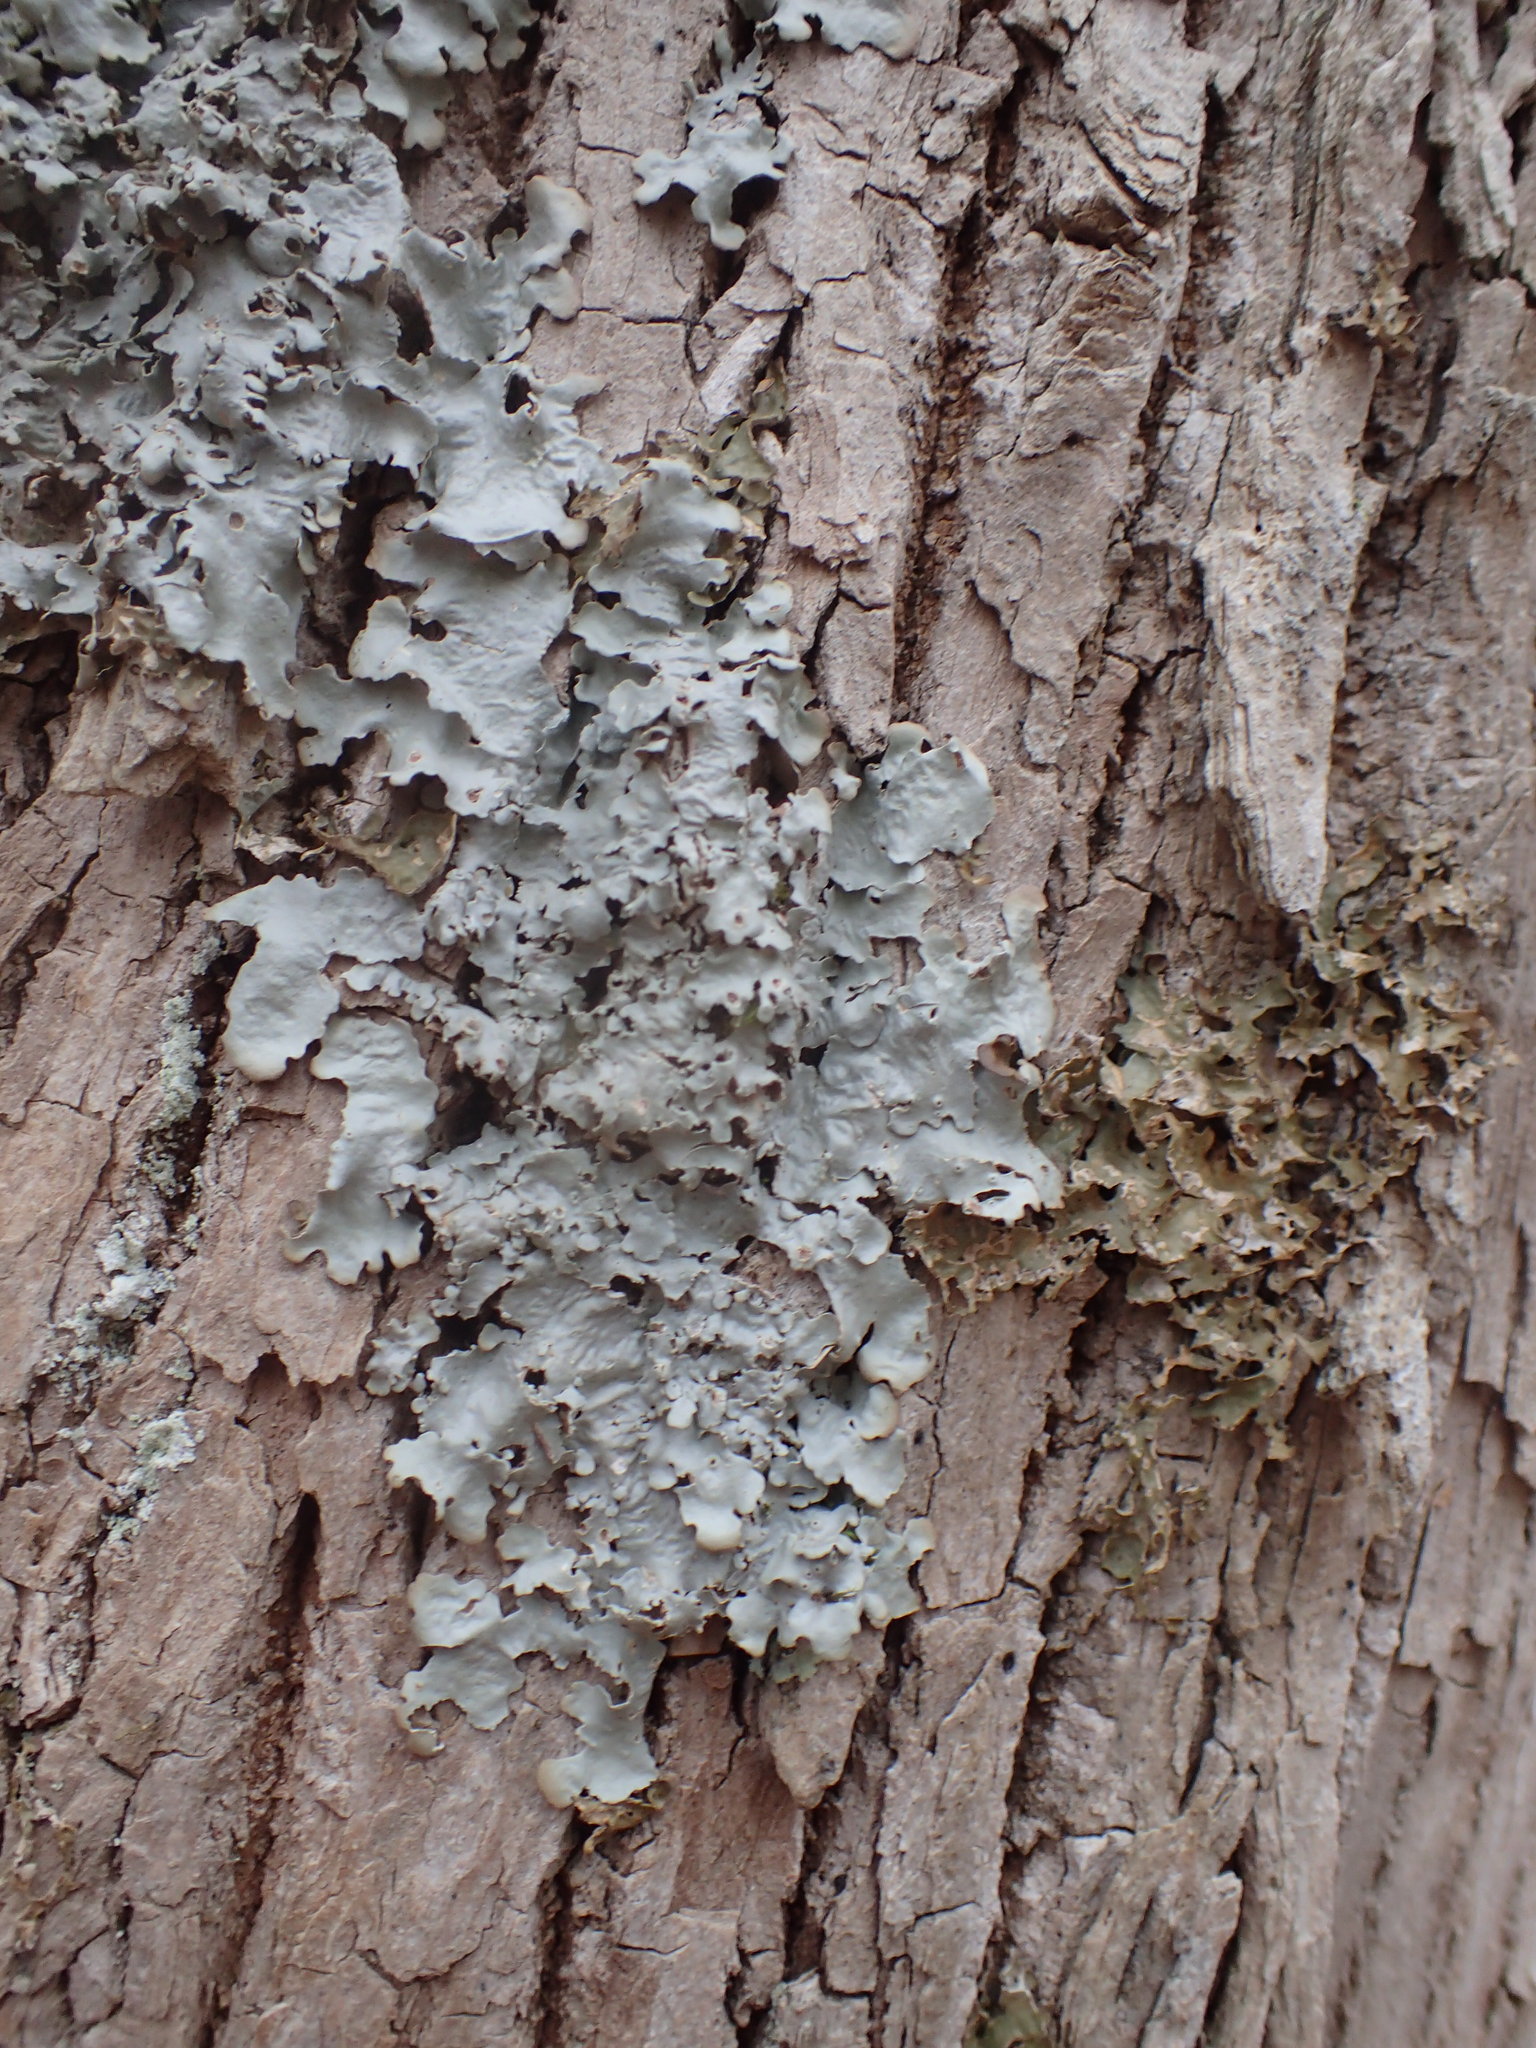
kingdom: Fungi
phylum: Ascomycota
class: Lecanoromycetes
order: Peltigerales
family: Lobariaceae
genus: Ricasolia
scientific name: Ricasolia quercizans
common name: Smooth lungwort
